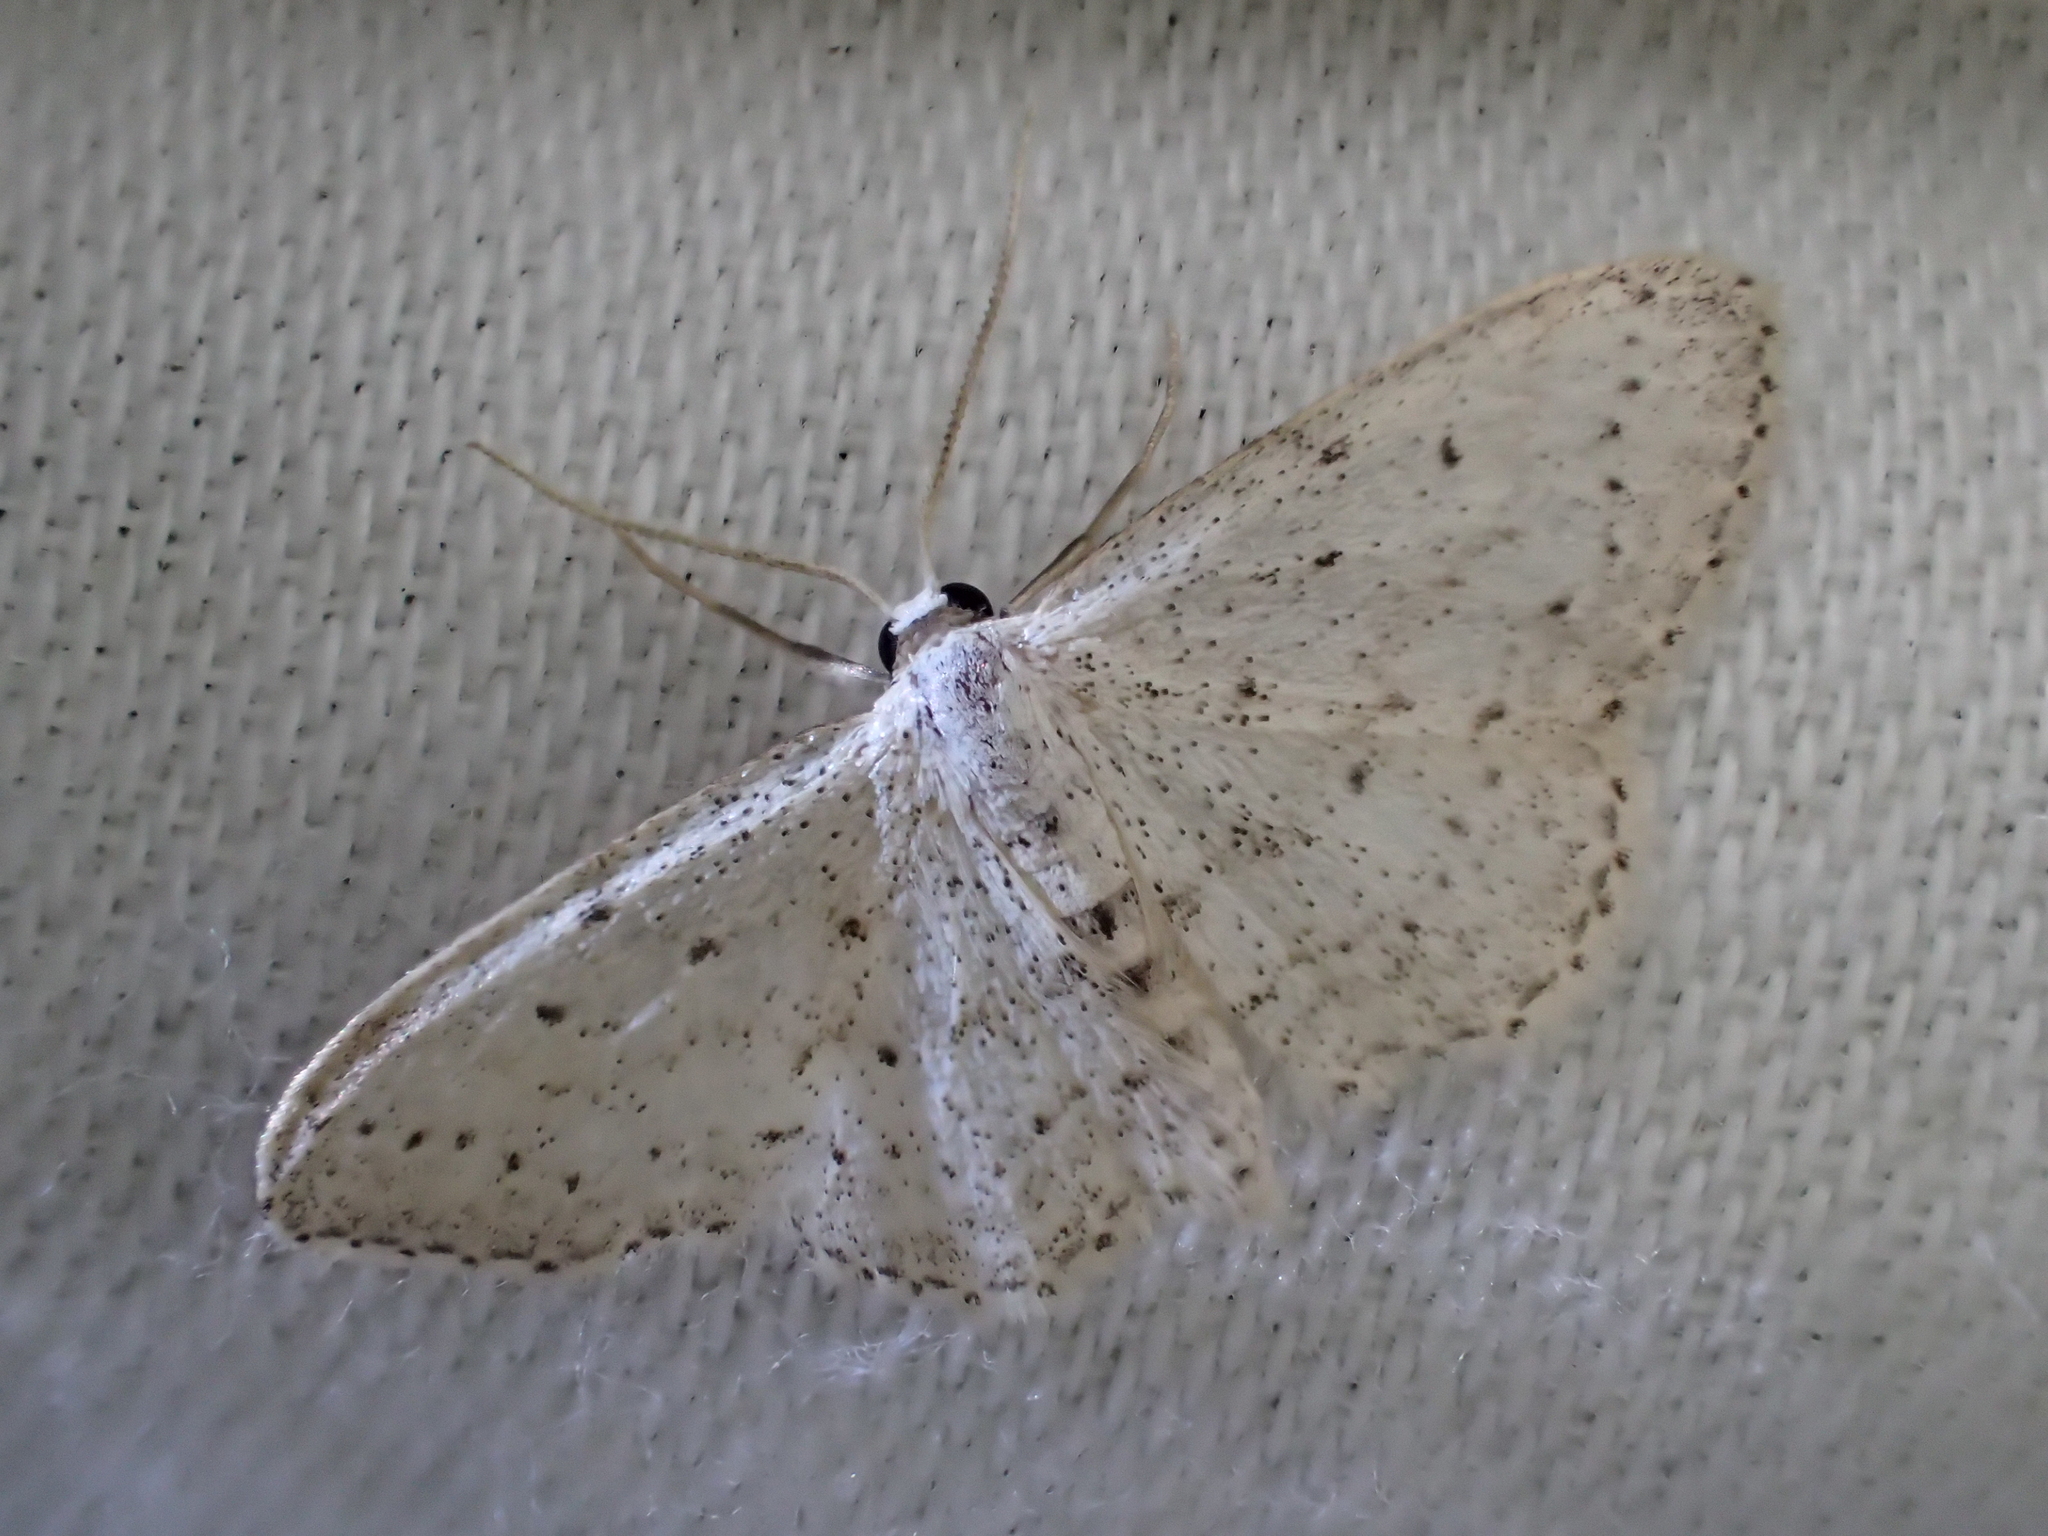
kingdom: Animalia
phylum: Arthropoda
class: Insecta
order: Lepidoptera
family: Geometridae
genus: Idaea
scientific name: Idaea seriata
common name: Small dusty wave
